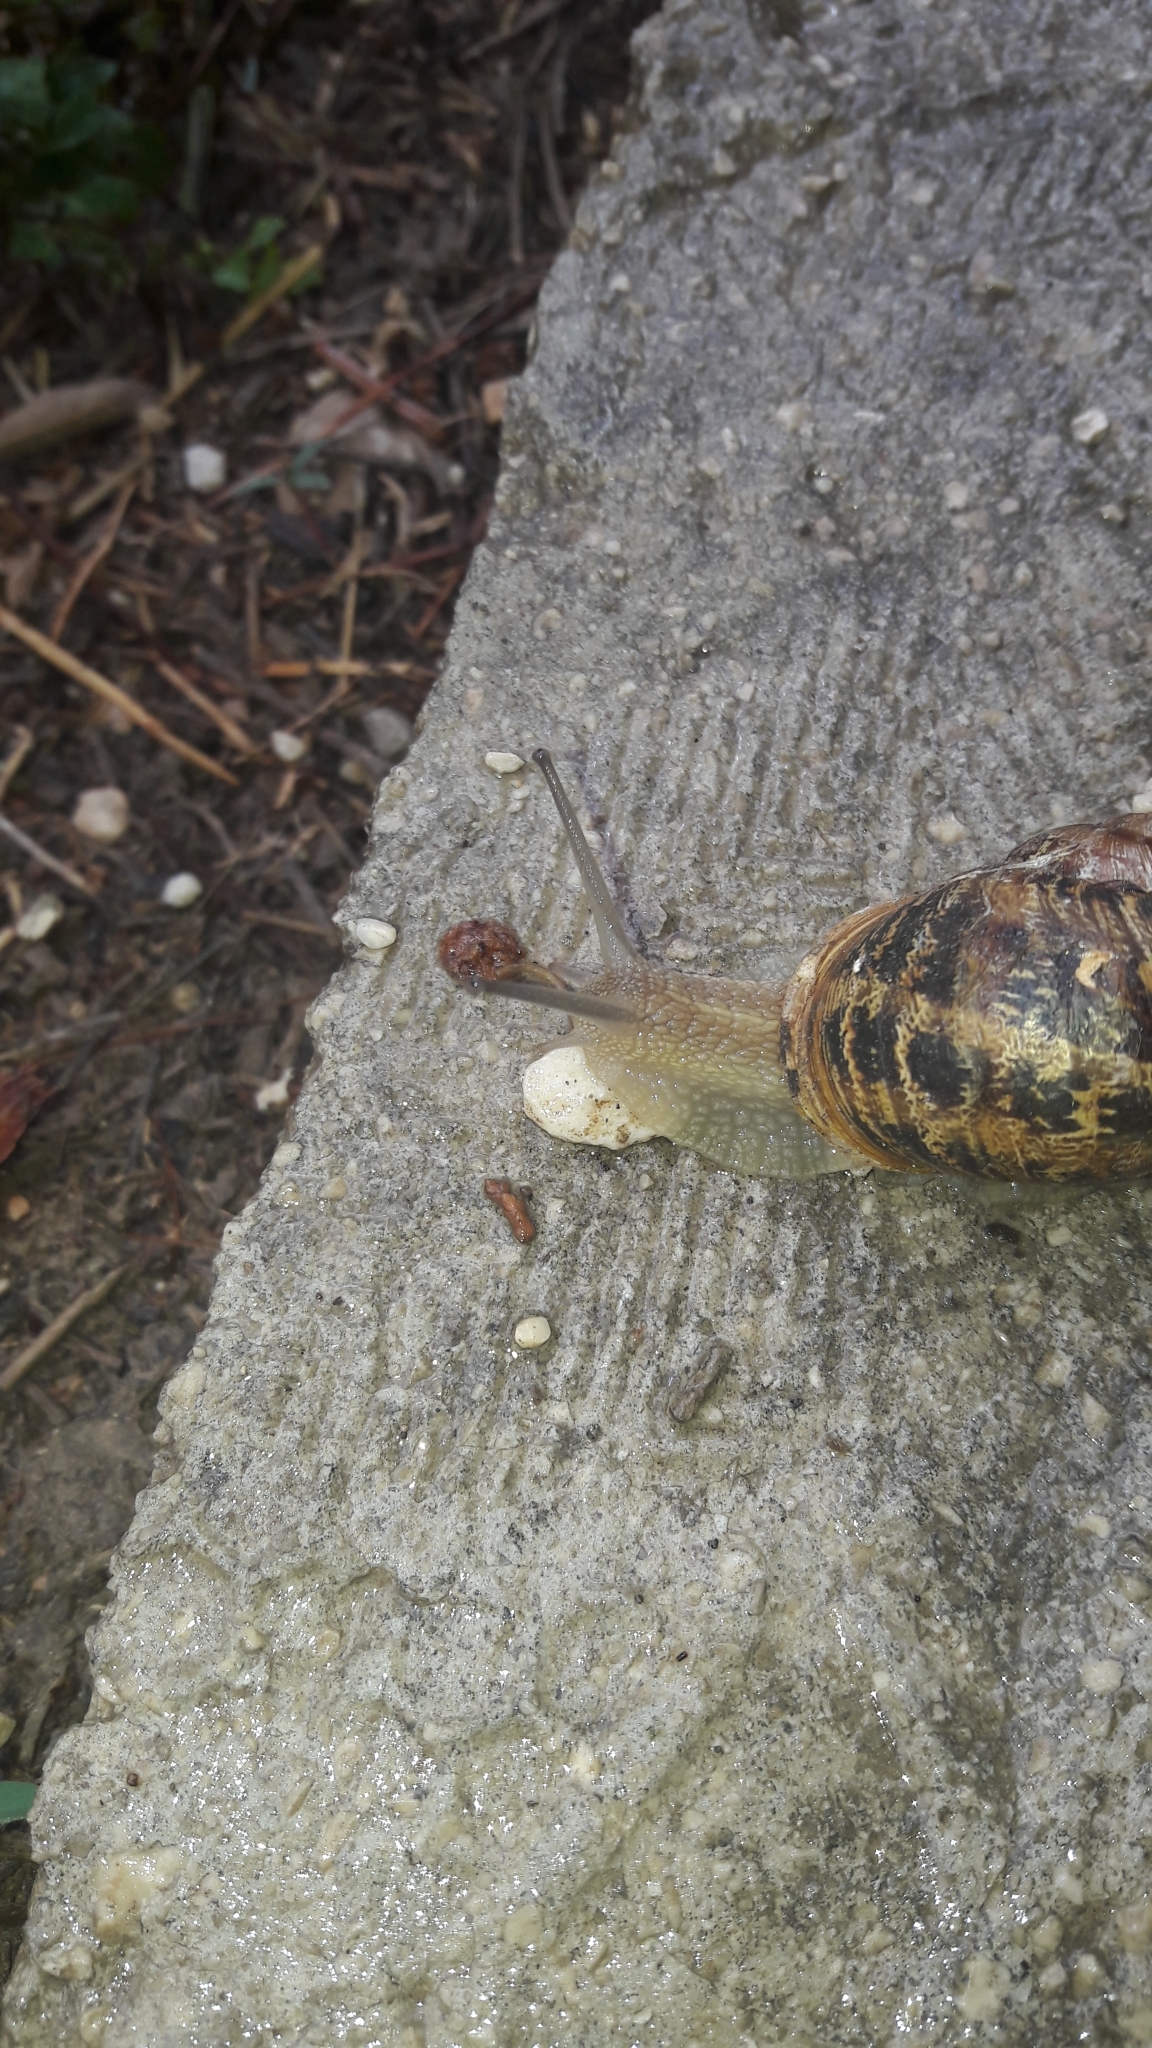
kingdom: Animalia
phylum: Mollusca
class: Gastropoda
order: Stylommatophora
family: Helicidae
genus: Cornu
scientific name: Cornu aspersum
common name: Brown garden snail
